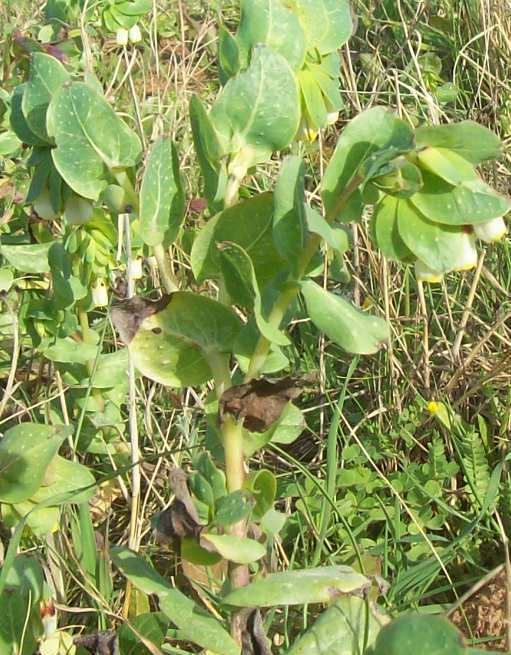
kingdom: Plantae
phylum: Tracheophyta
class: Magnoliopsida
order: Boraginales
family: Boraginaceae
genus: Cerinthe
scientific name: Cerinthe major
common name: Greater honeywort
